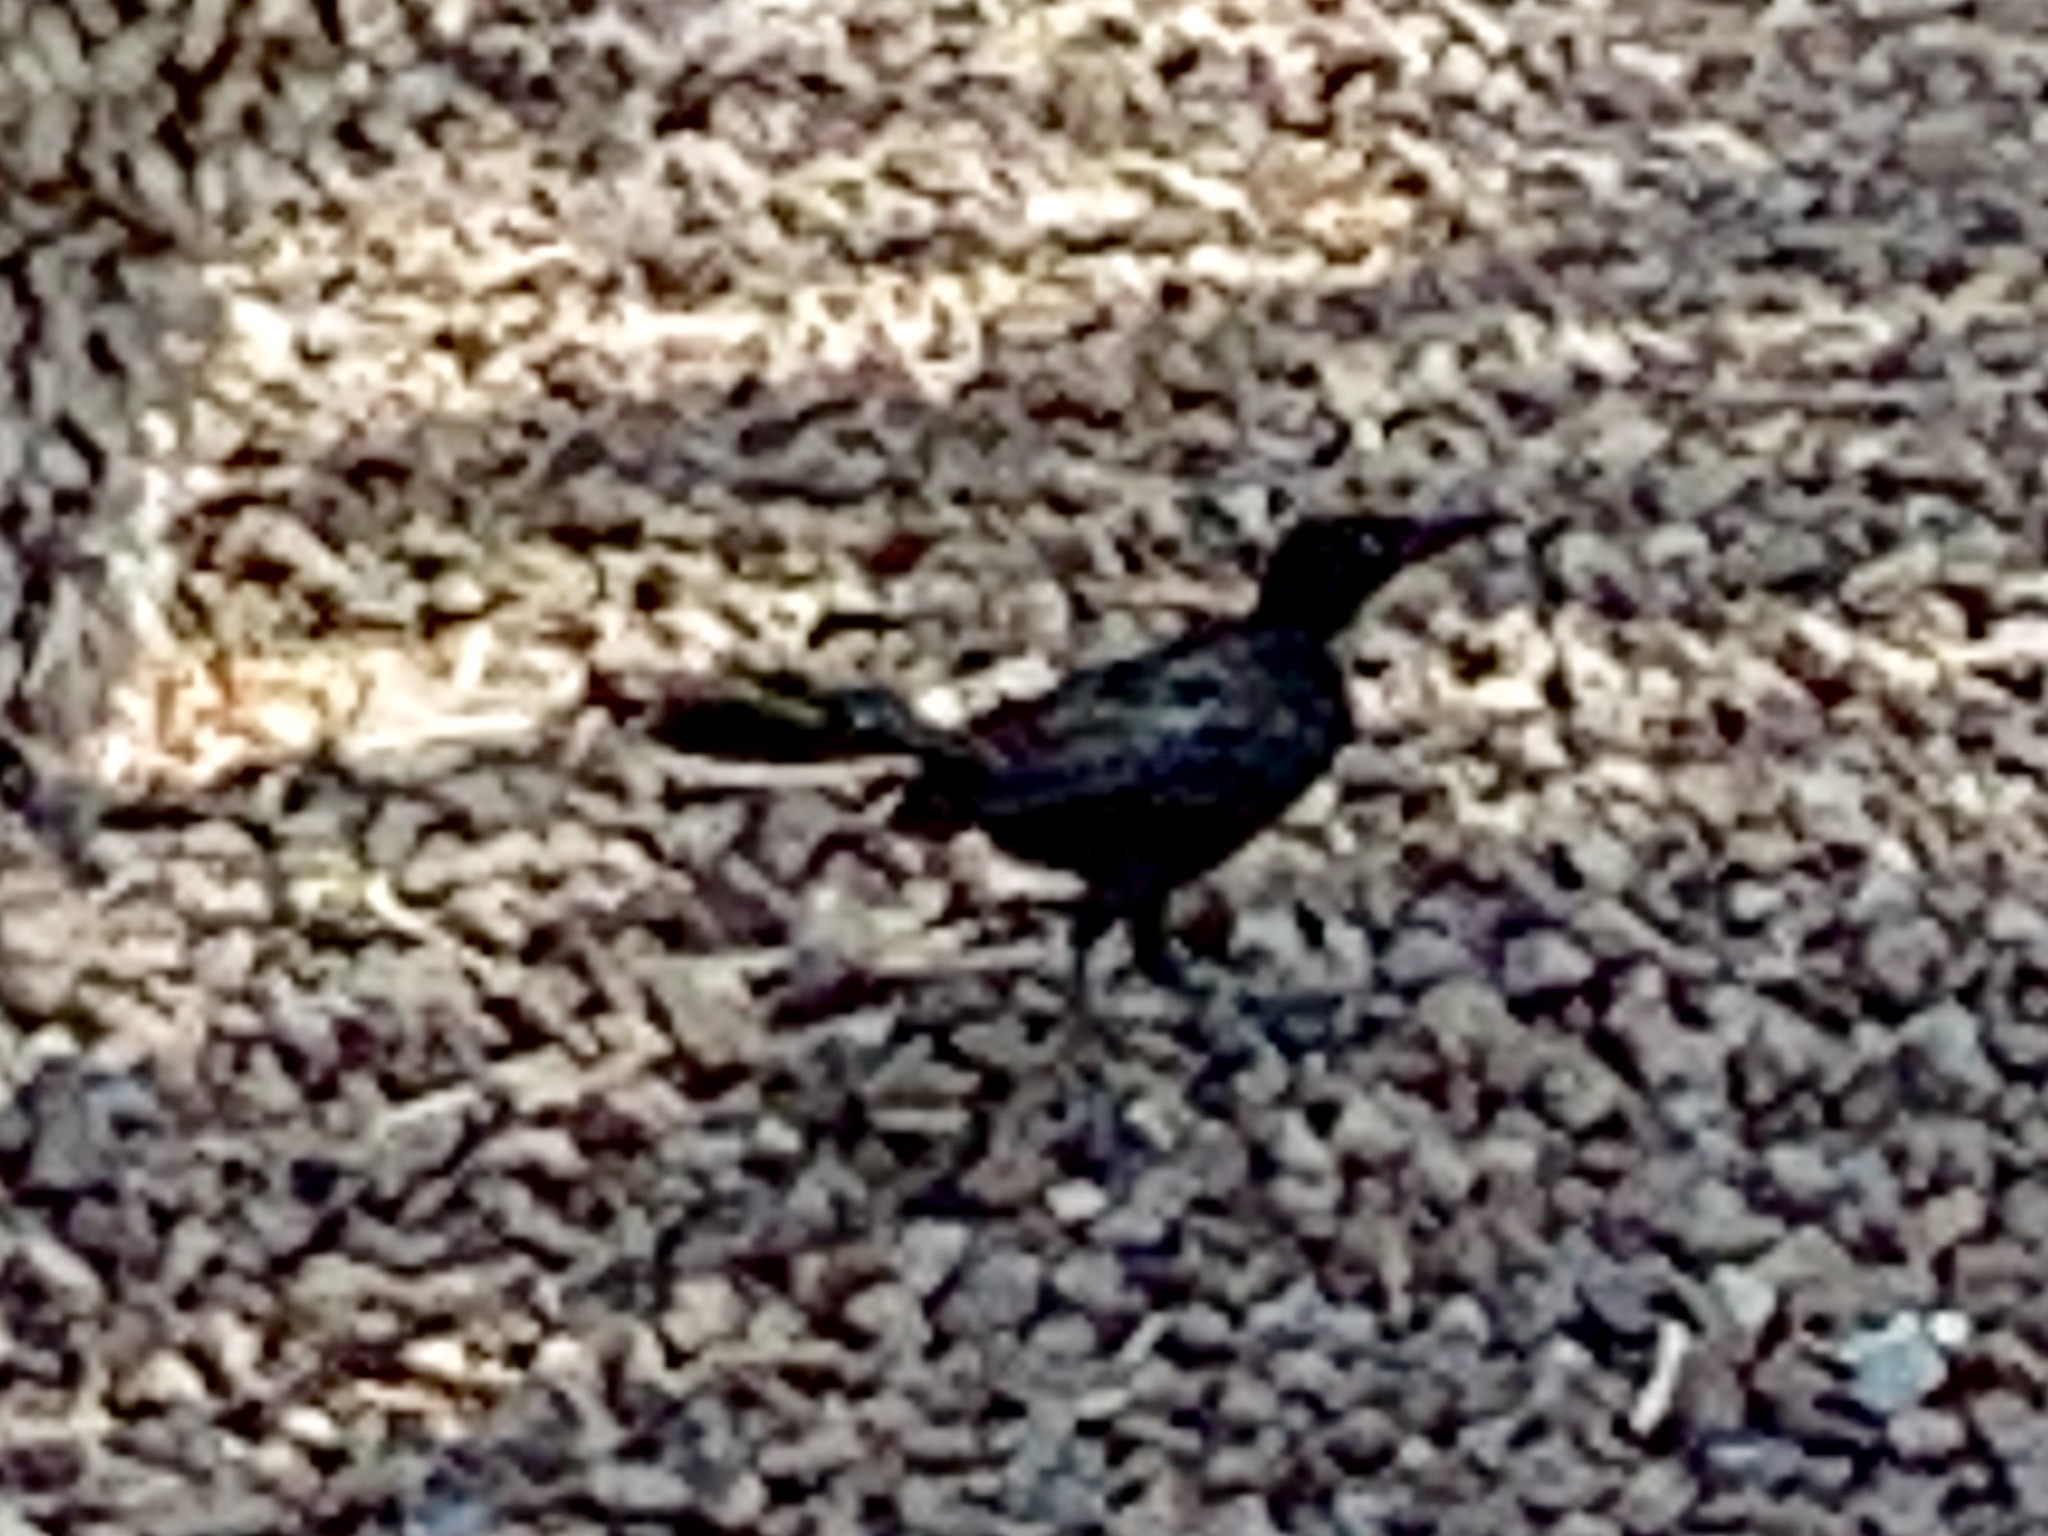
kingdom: Animalia
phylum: Chordata
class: Aves
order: Passeriformes
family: Icteridae
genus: Quiscalus
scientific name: Quiscalus mexicanus
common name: Great-tailed grackle
